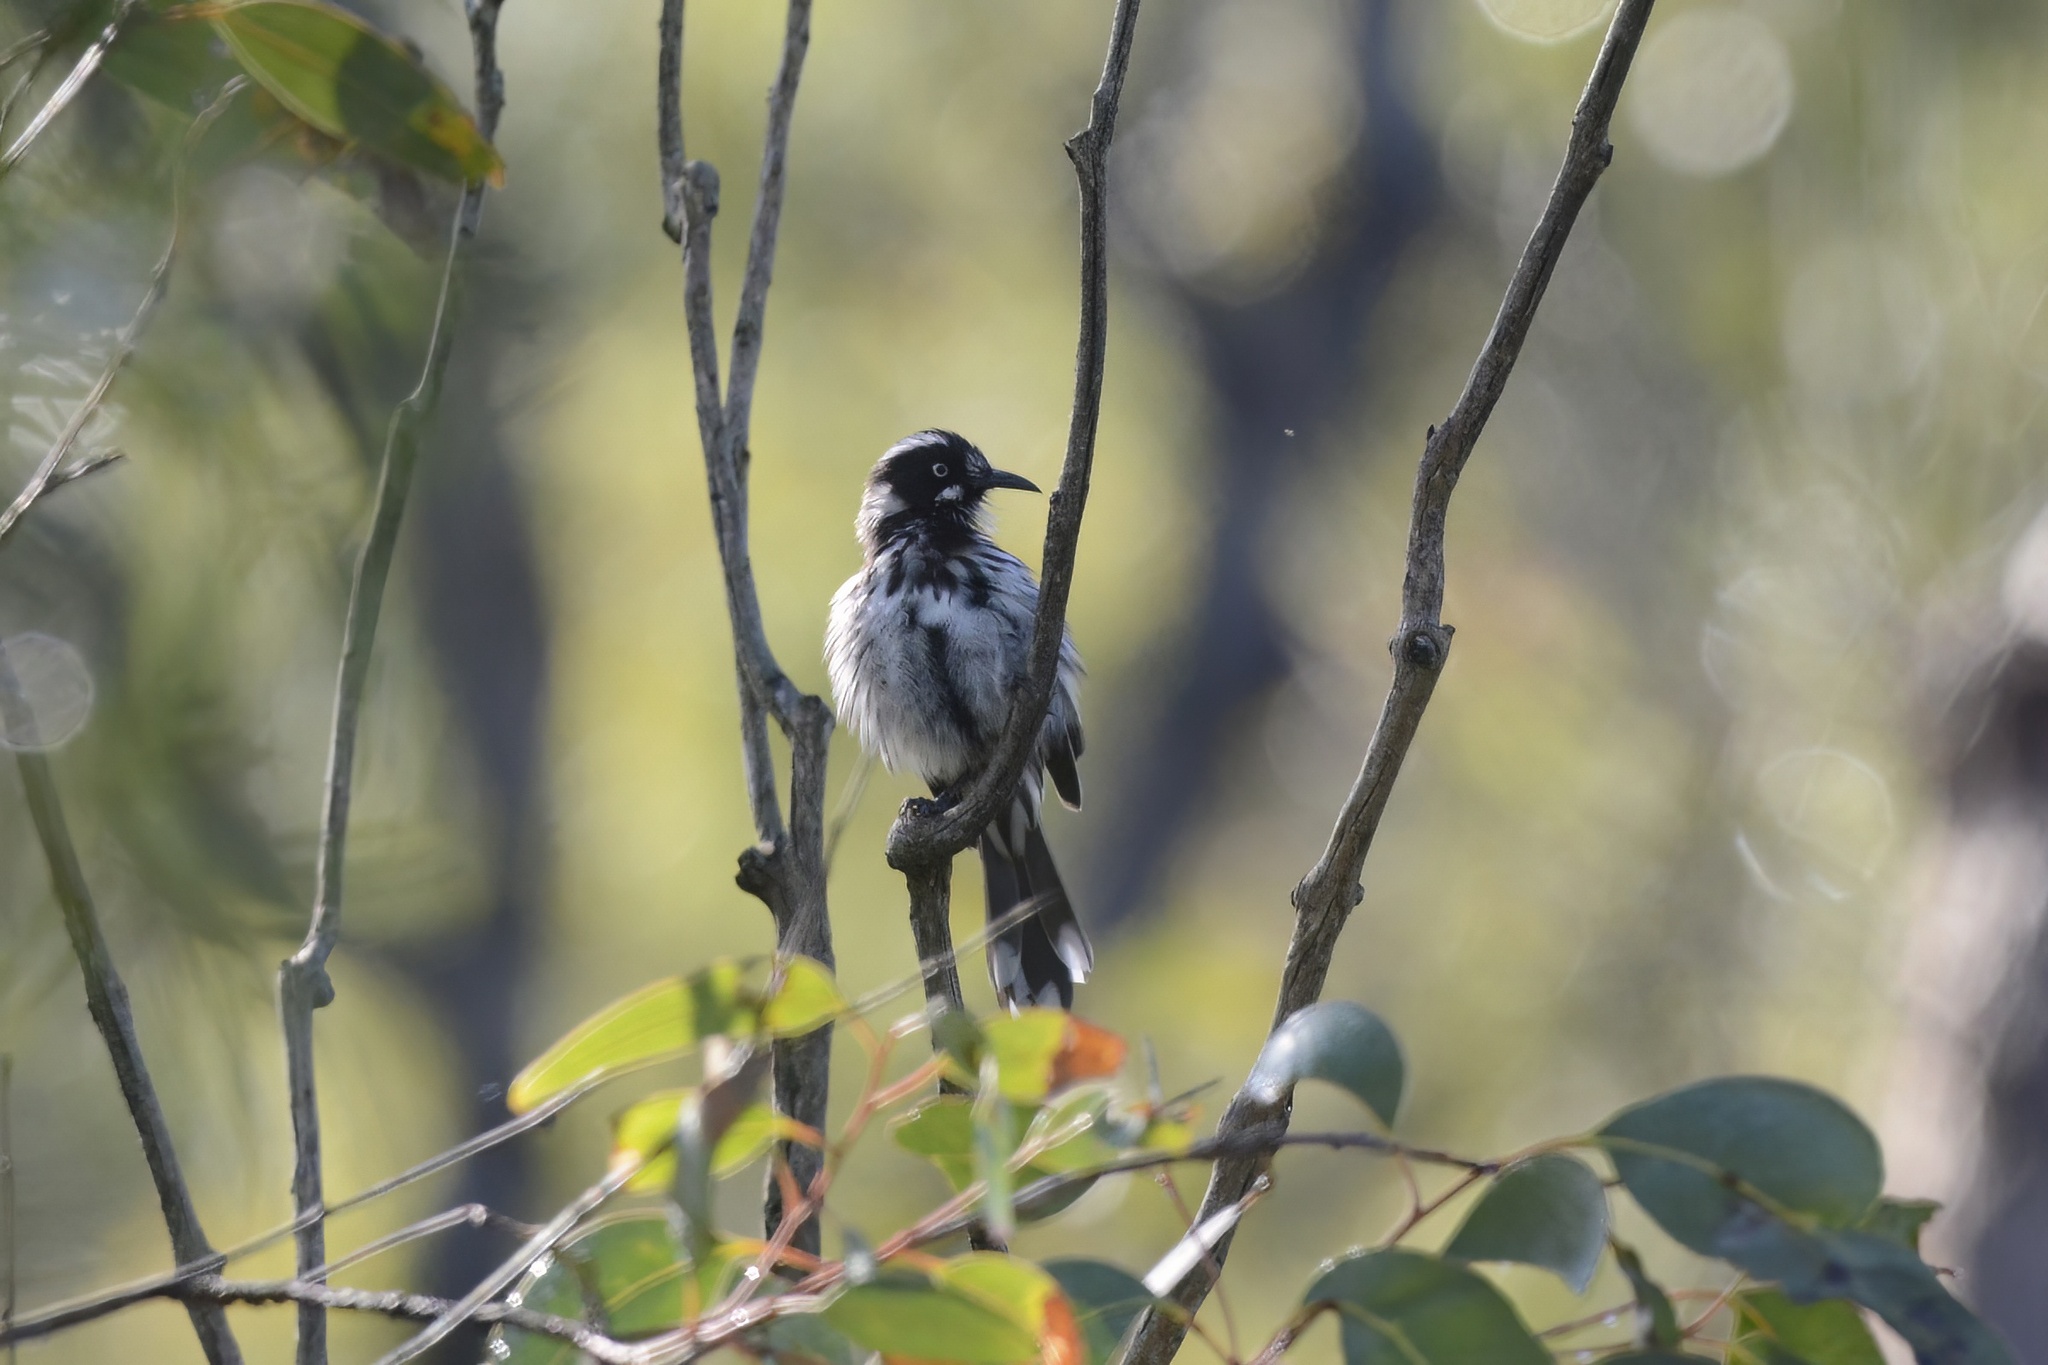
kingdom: Animalia
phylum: Chordata
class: Aves
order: Passeriformes
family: Meliphagidae
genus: Phylidonyris
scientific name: Phylidonyris novaehollandiae
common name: New holland honeyeater
